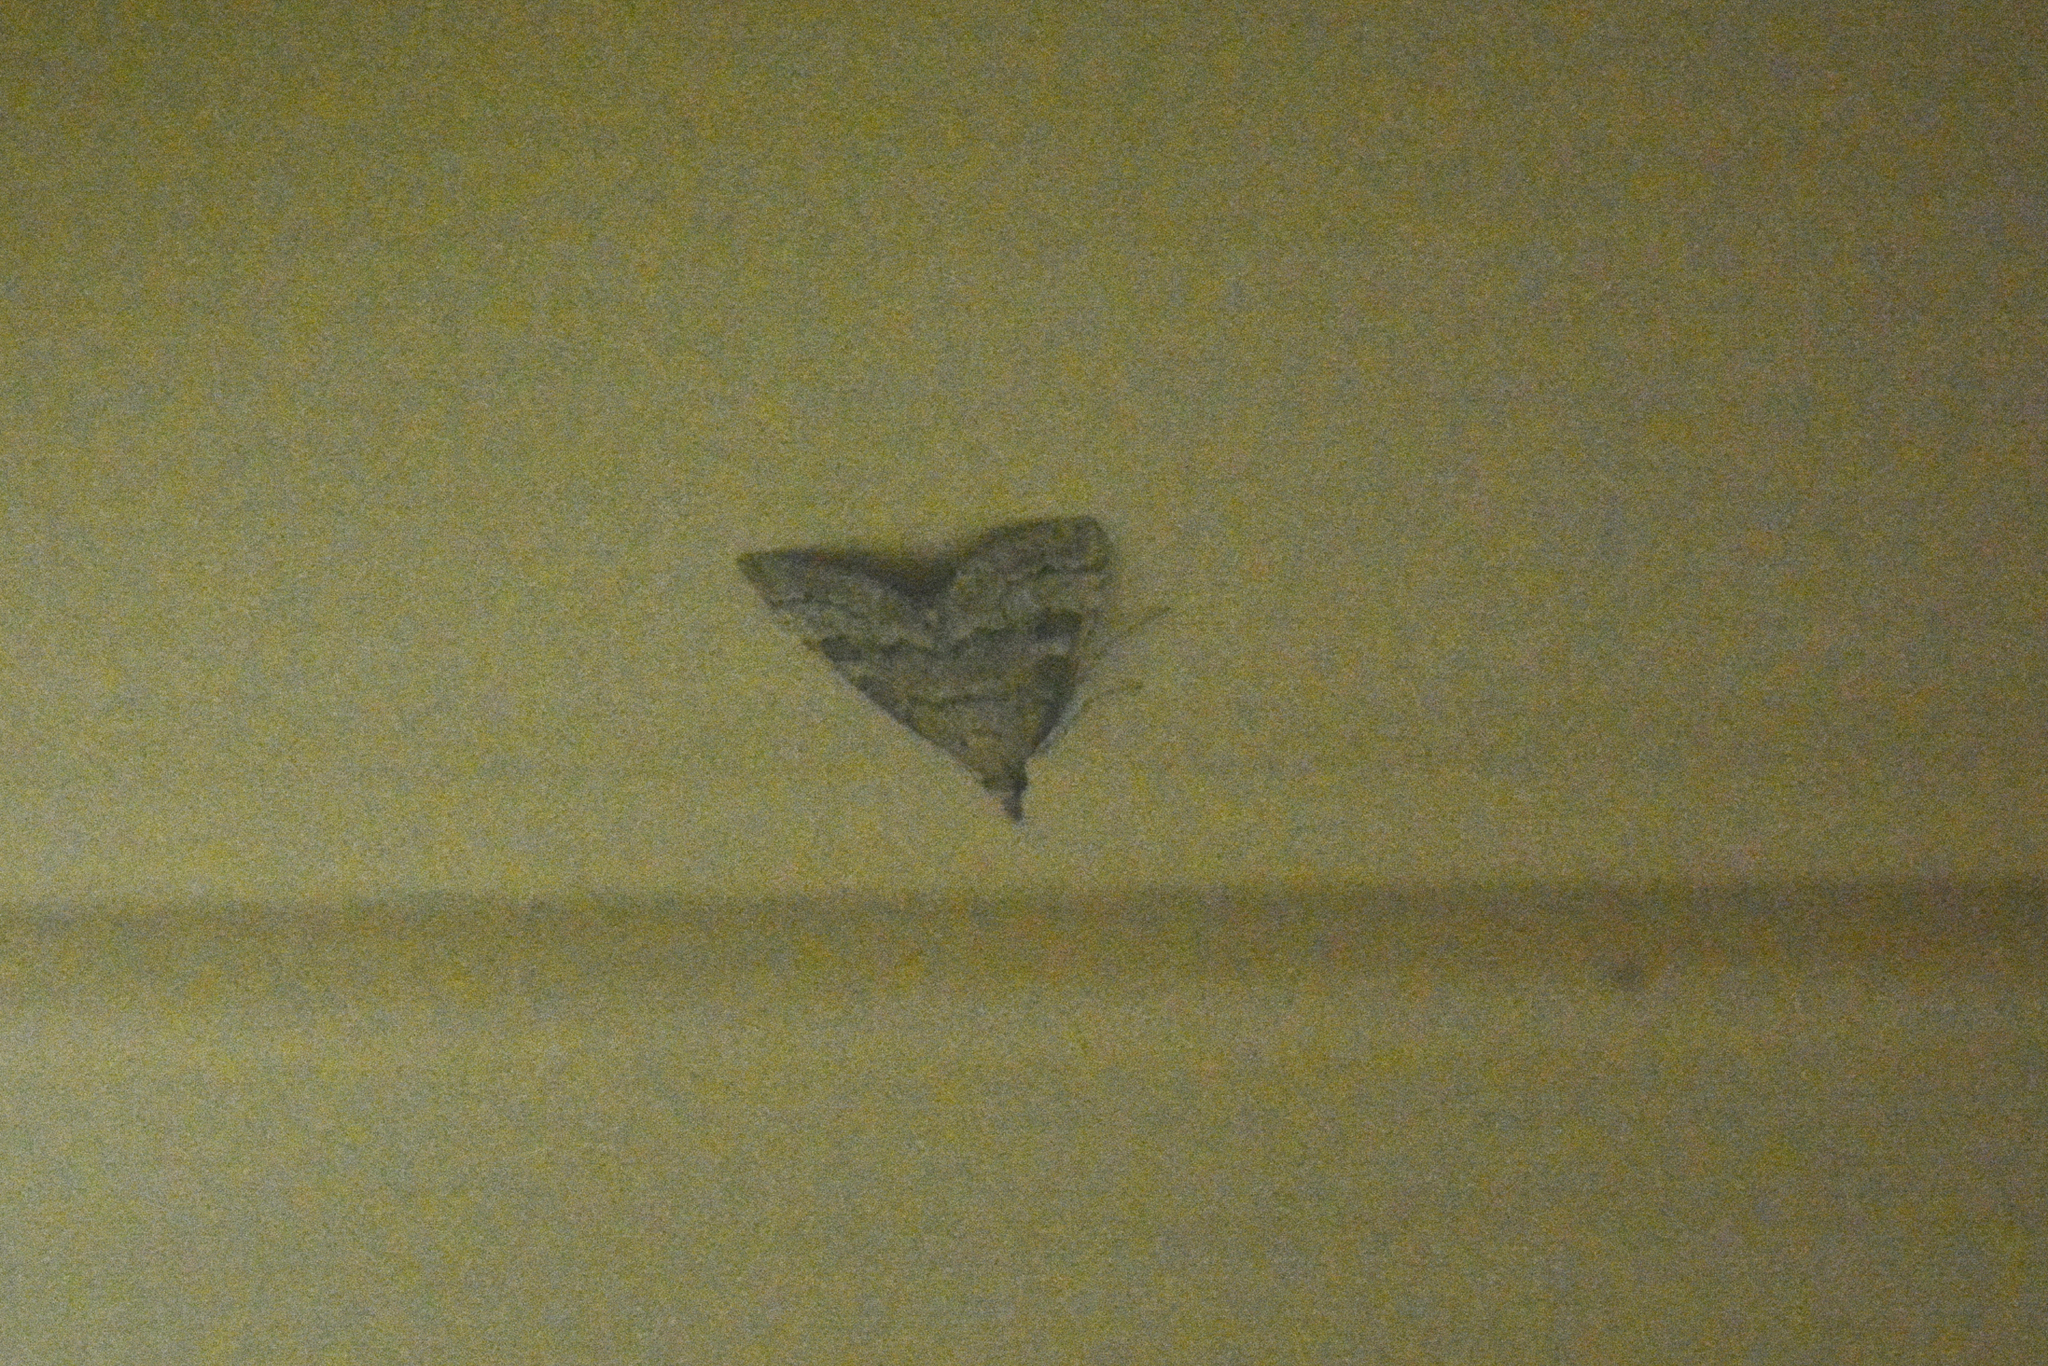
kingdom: Animalia
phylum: Arthropoda
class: Insecta
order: Lepidoptera
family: Crambidae
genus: Udea
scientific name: Udea fulvalis
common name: Fulvous pearl
